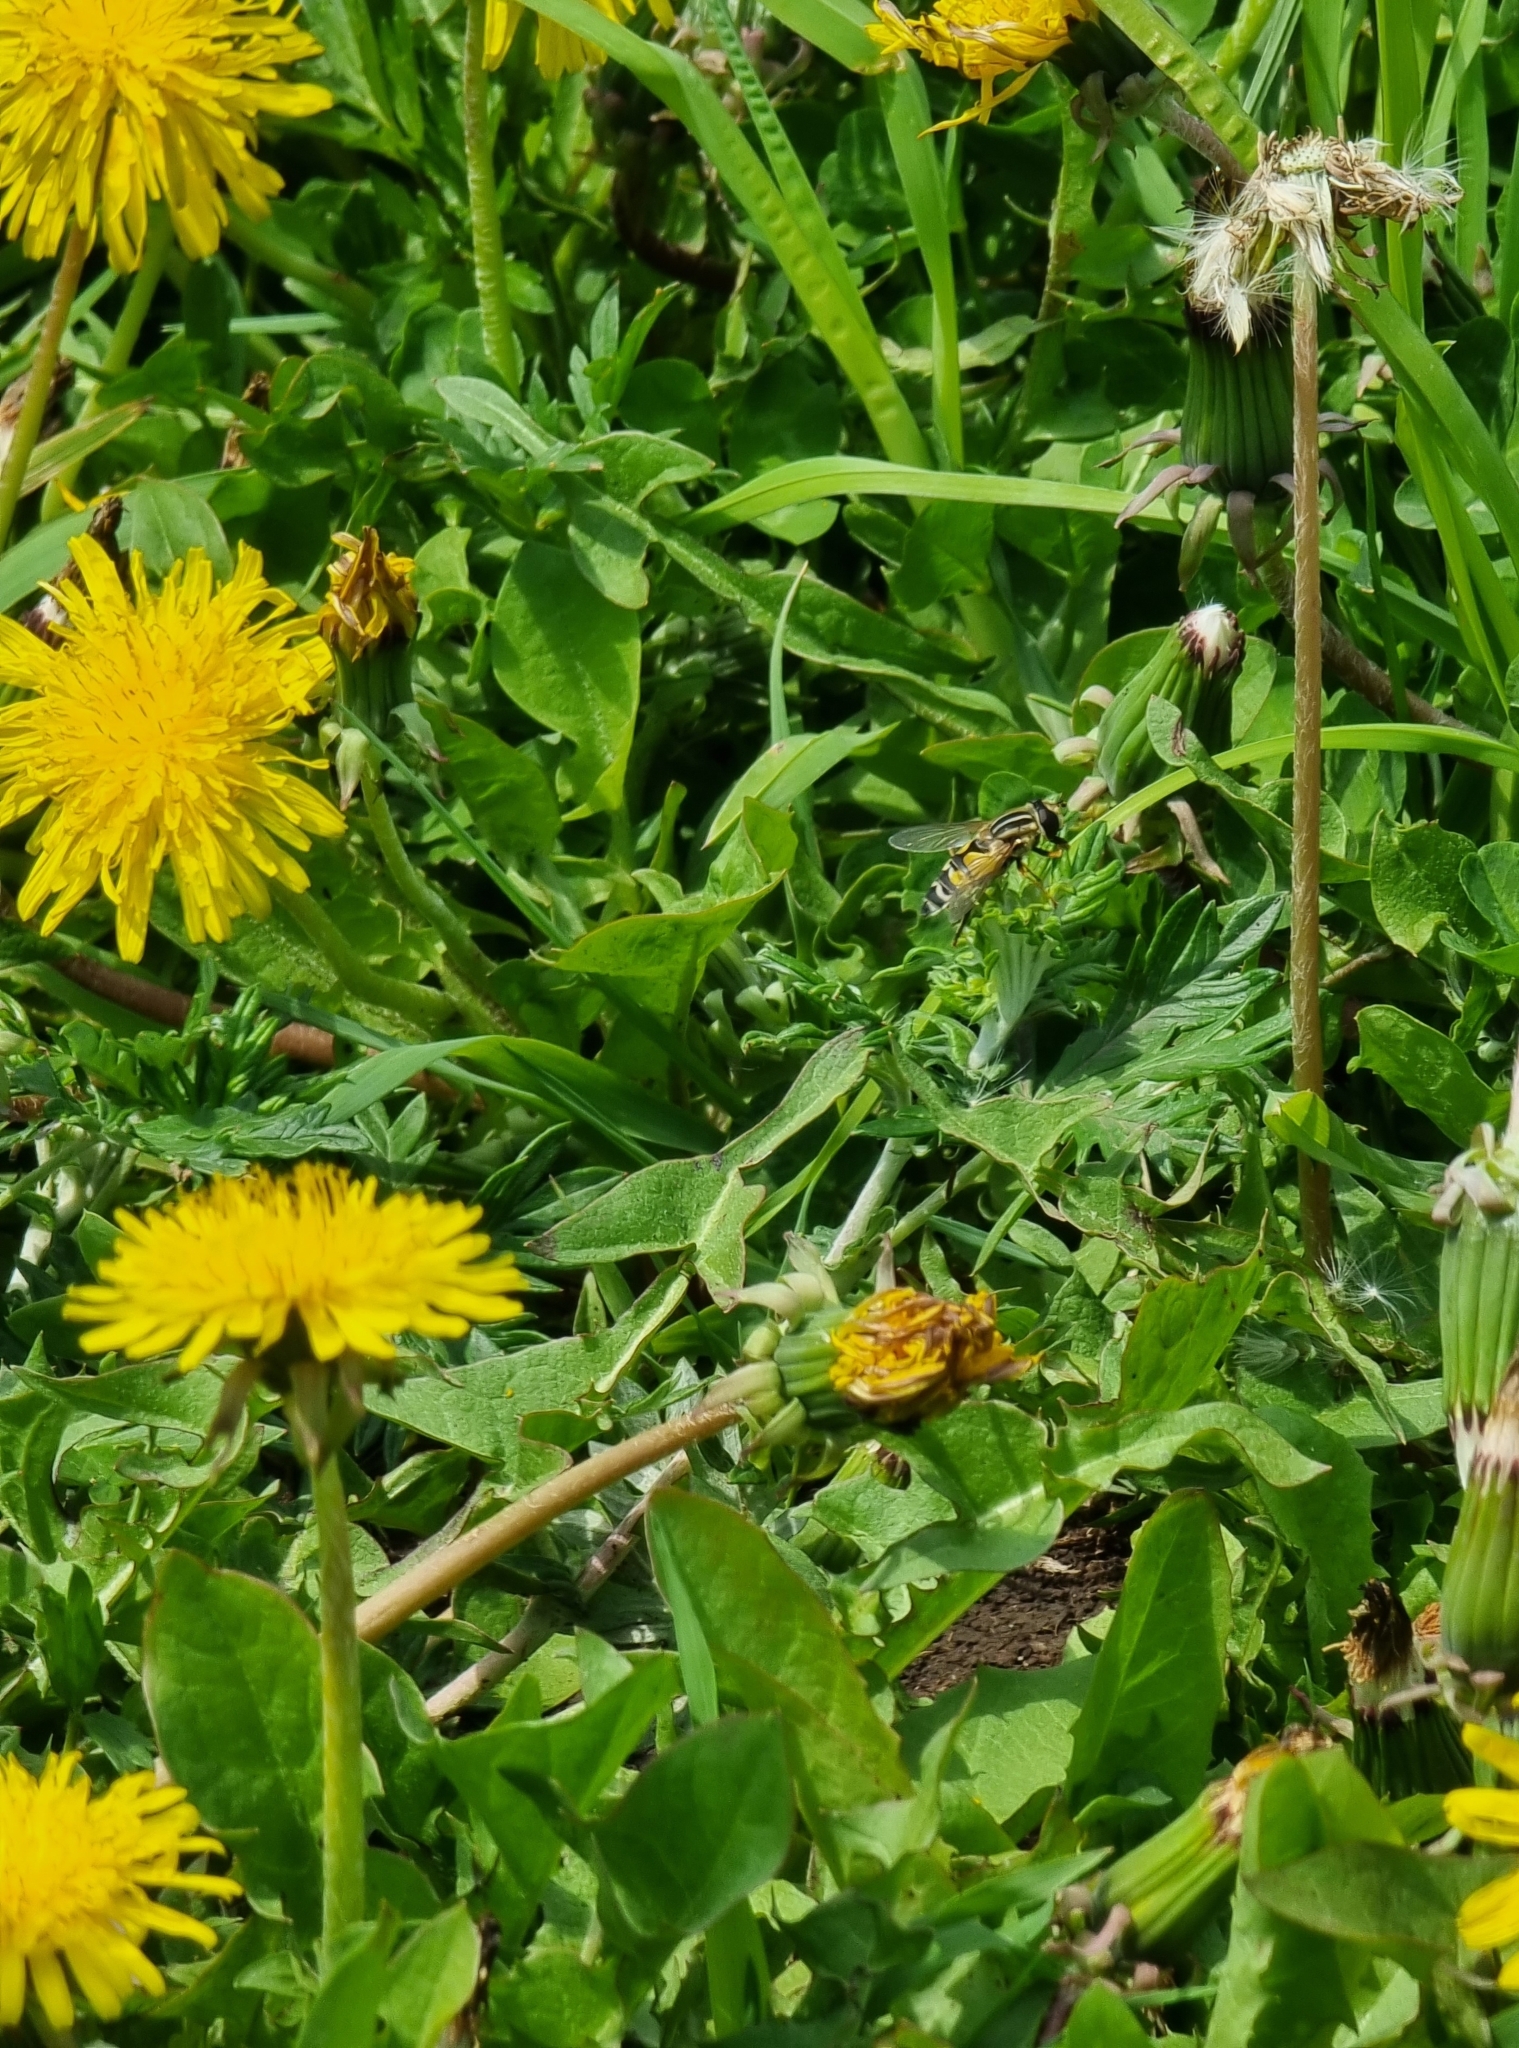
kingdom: Animalia
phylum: Arthropoda
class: Insecta
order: Diptera
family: Syrphidae
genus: Helophilus
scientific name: Helophilus trivittatus
